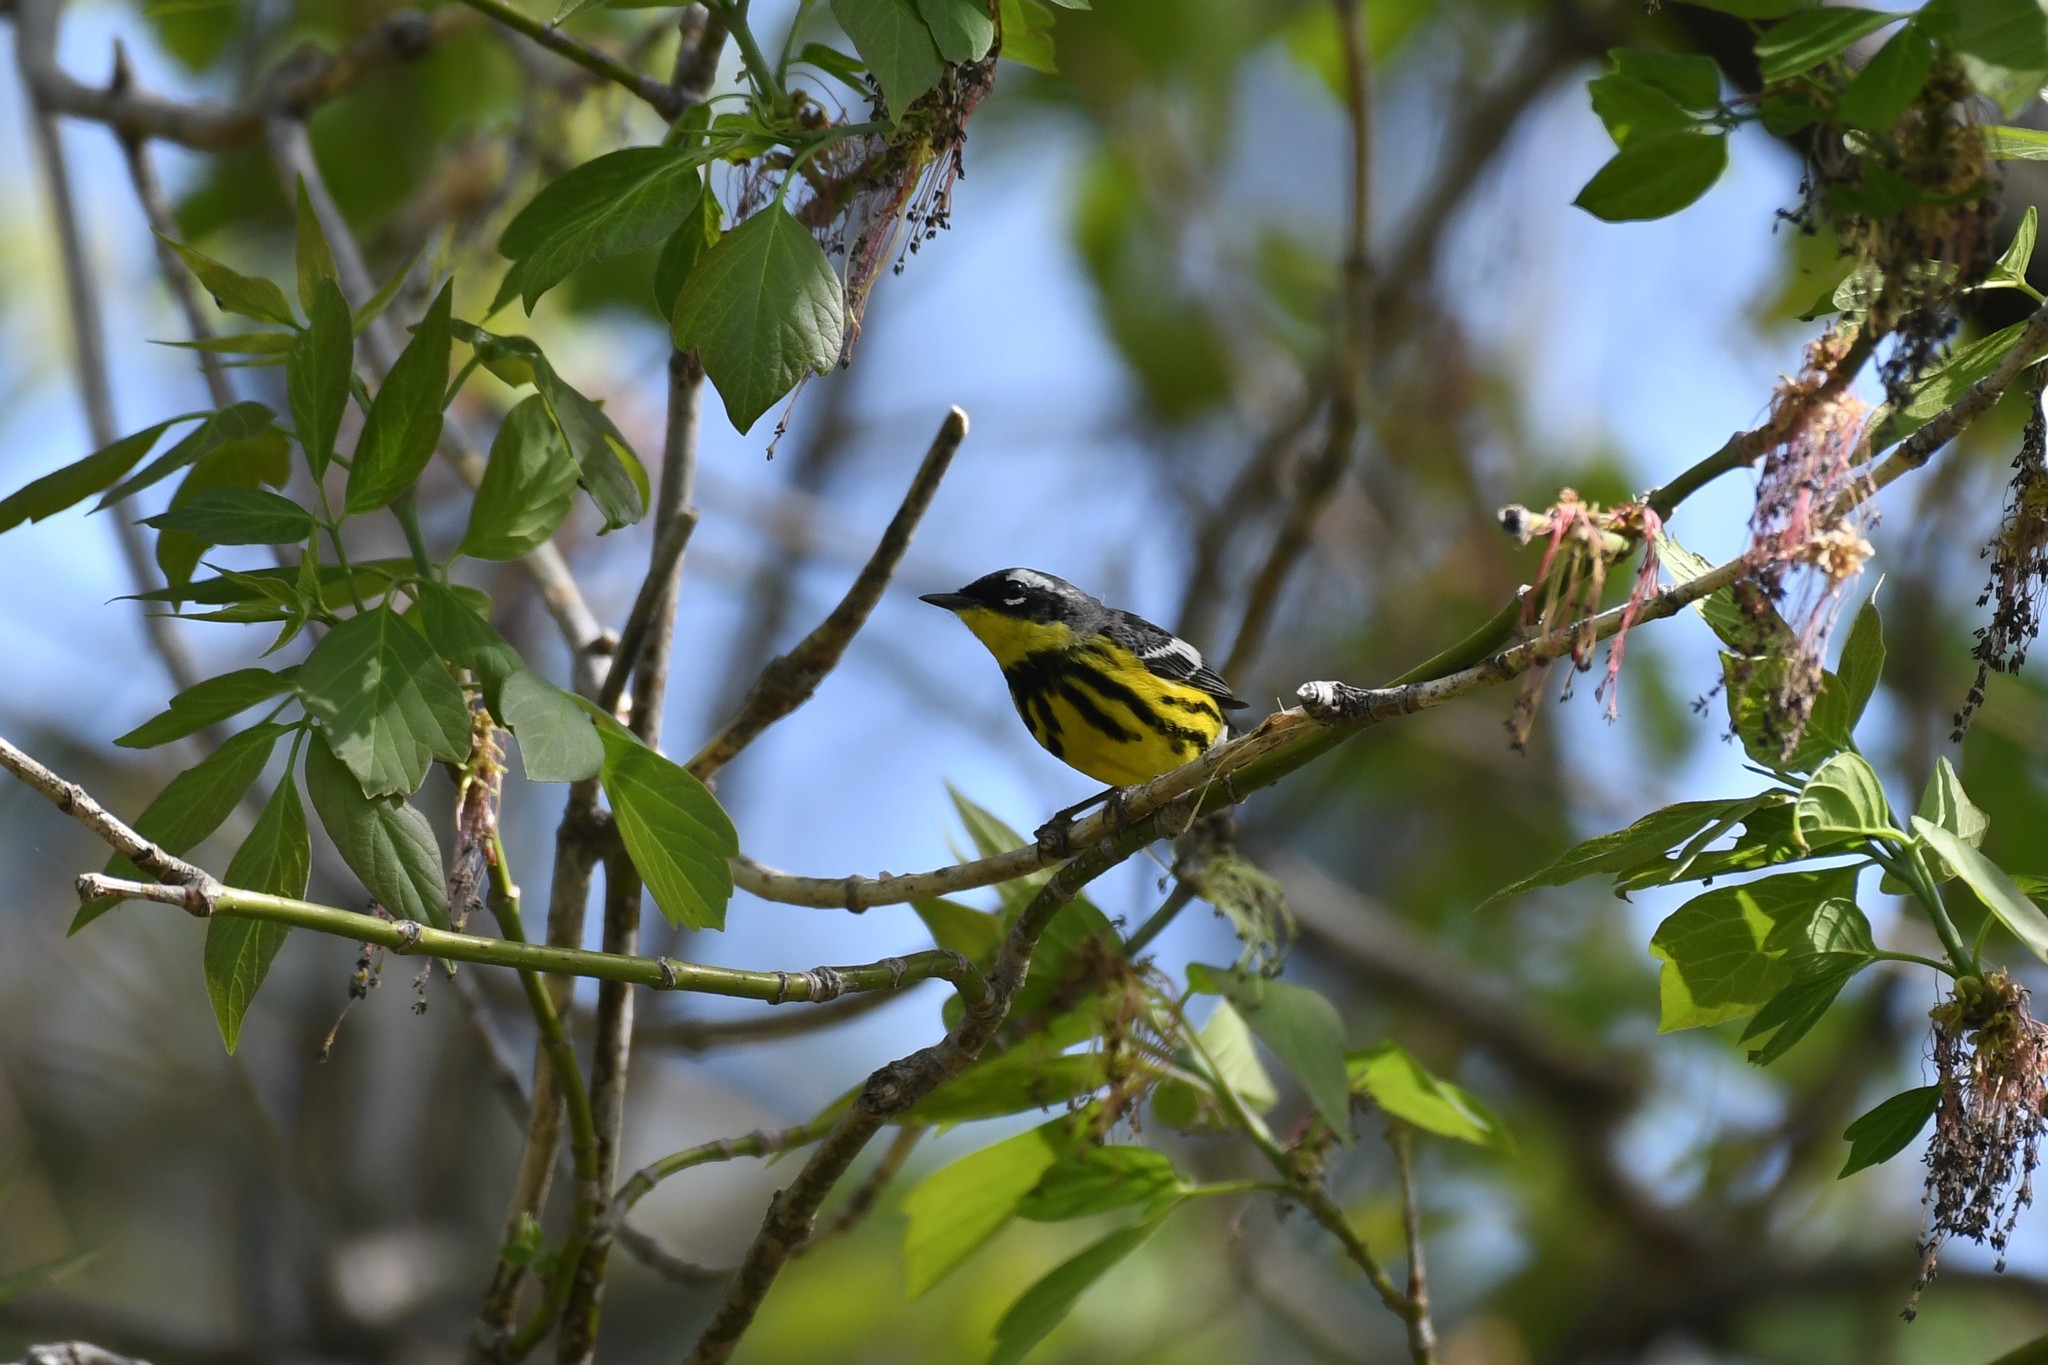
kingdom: Animalia
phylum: Chordata
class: Aves
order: Passeriformes
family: Parulidae
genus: Setophaga
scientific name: Setophaga magnolia
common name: Magnolia warbler
